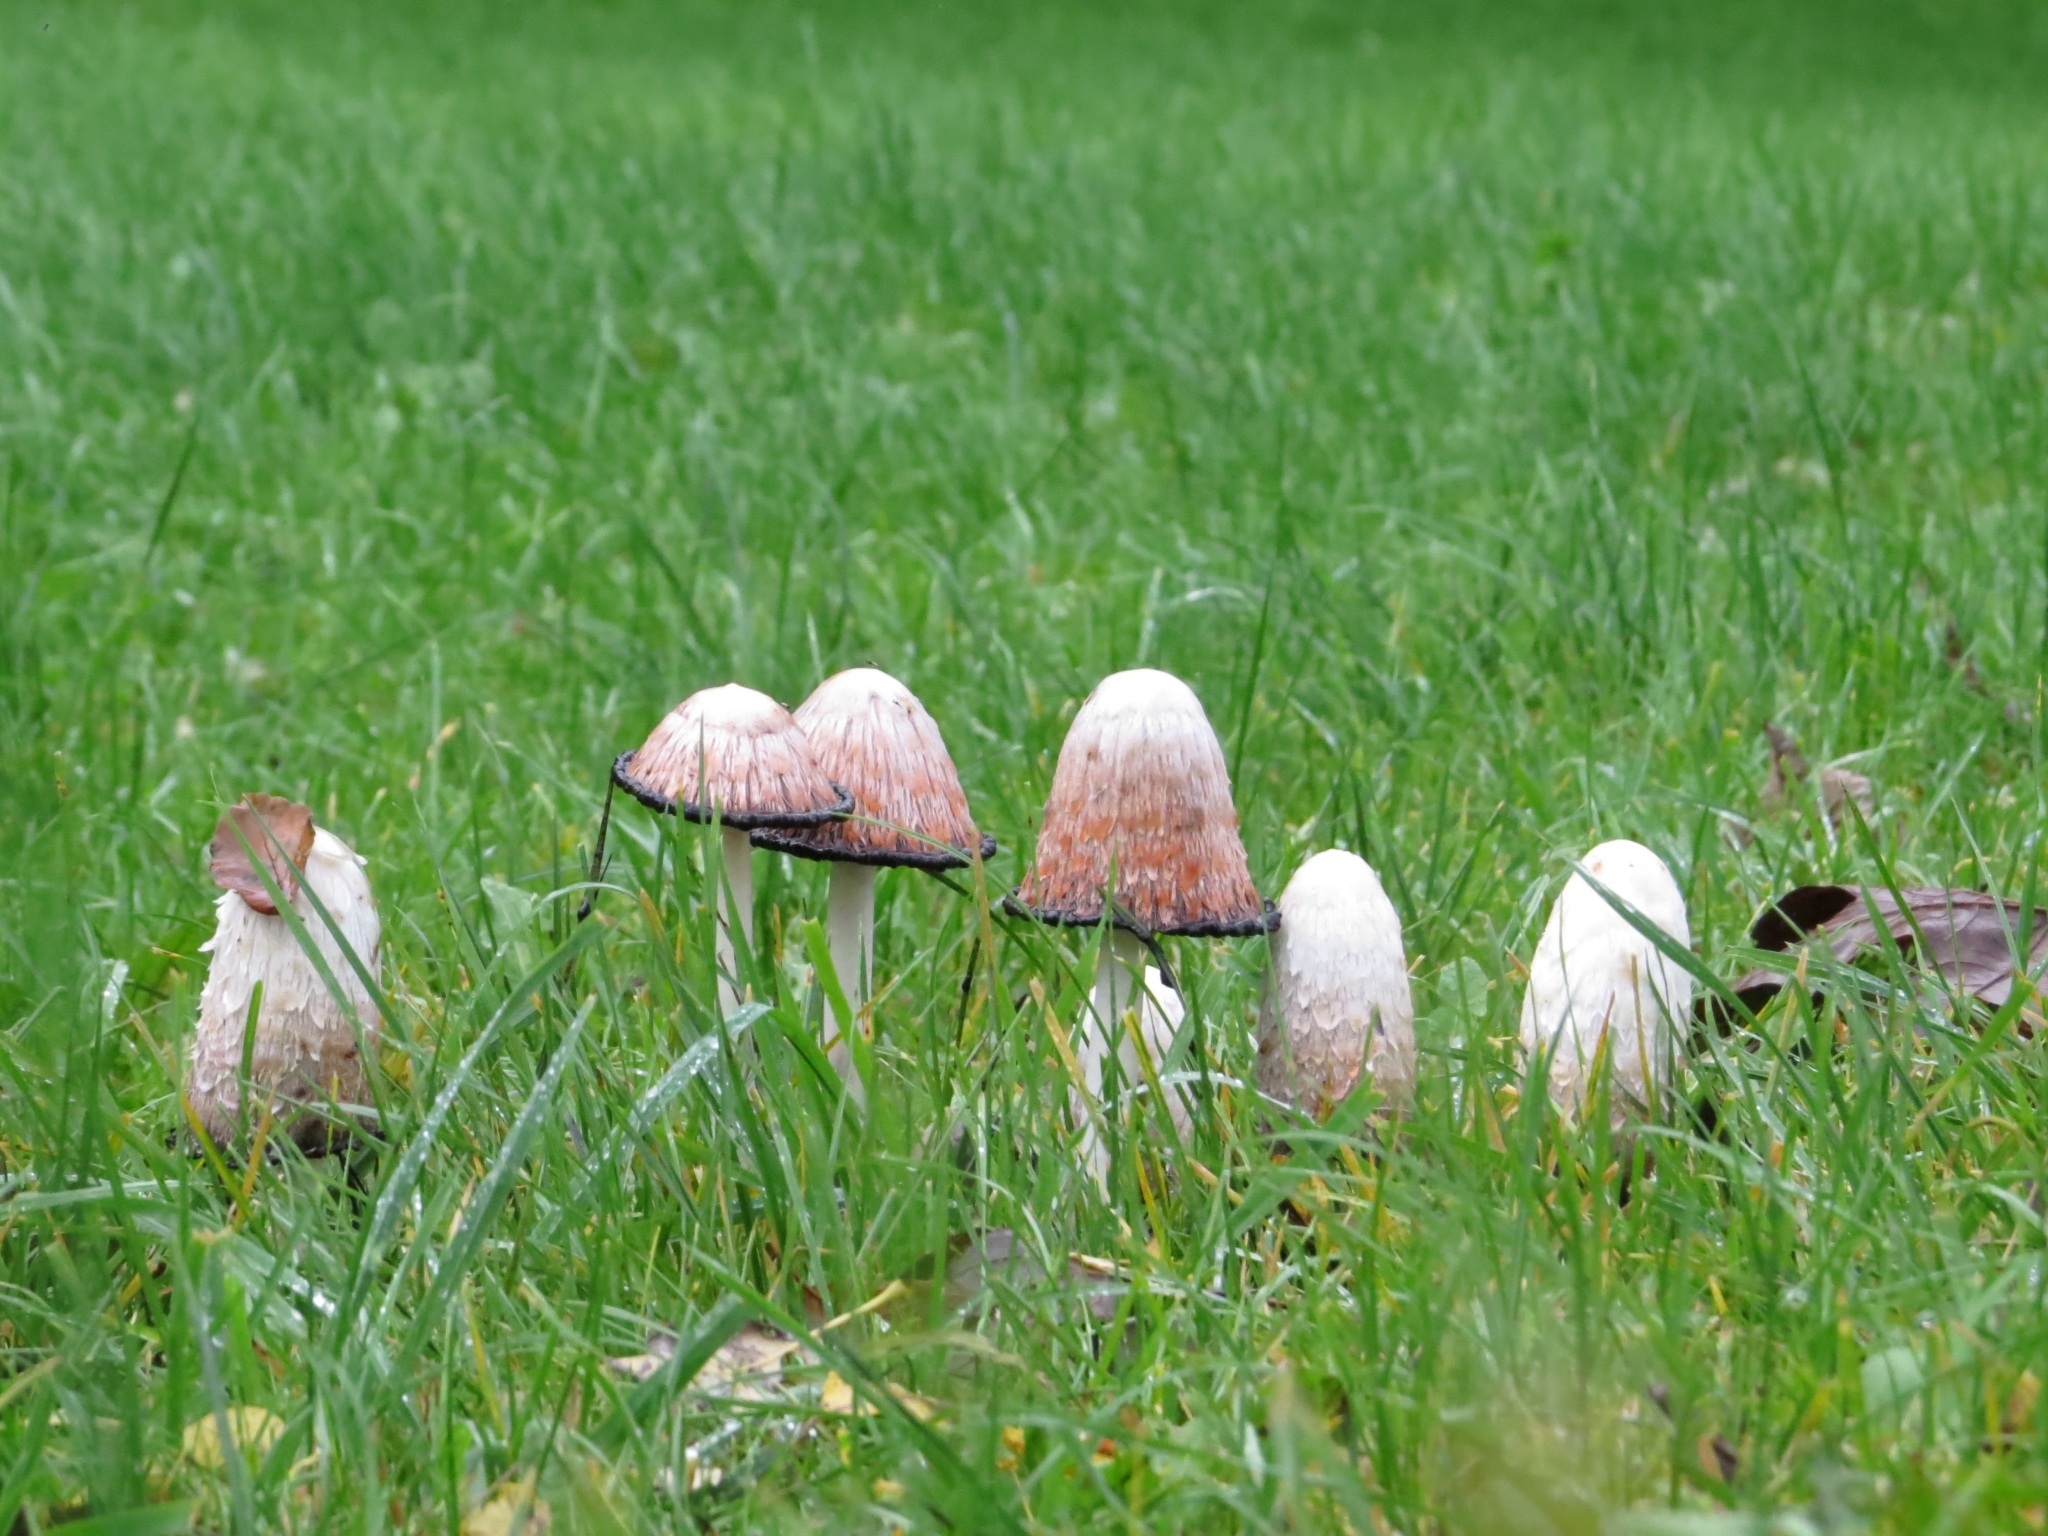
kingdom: Fungi
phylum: Basidiomycota
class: Agaricomycetes
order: Agaricales
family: Agaricaceae
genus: Coprinus
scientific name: Coprinus comatus
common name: Lawyer's wig
